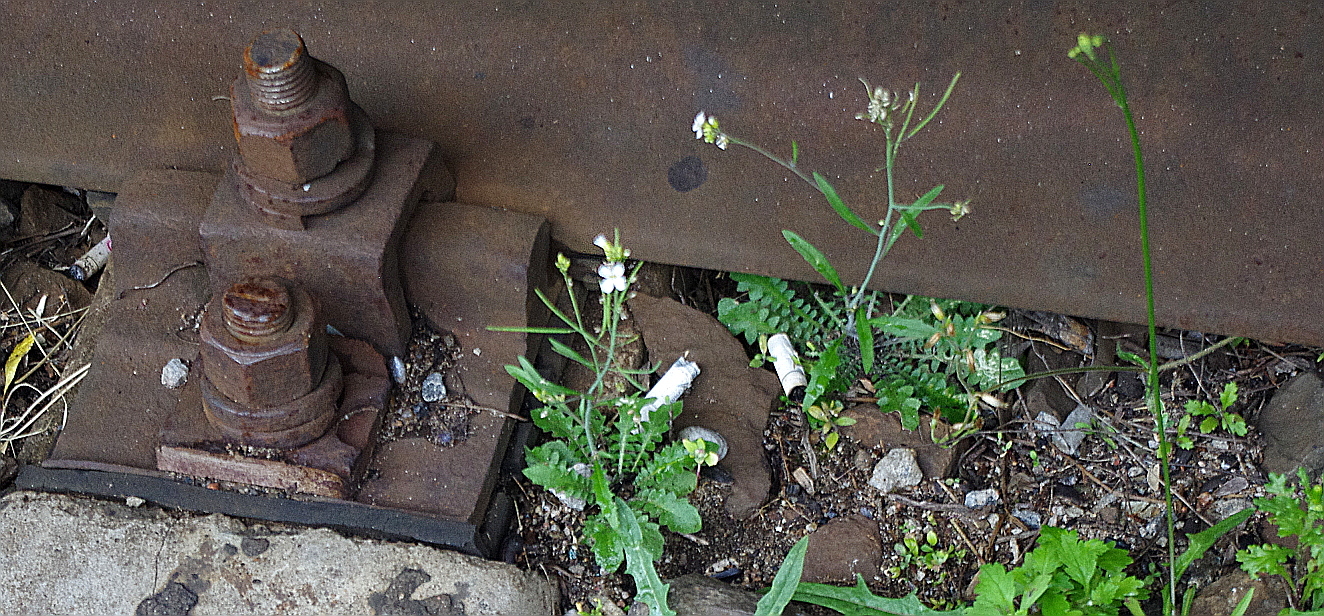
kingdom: Plantae
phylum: Tracheophyta
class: Magnoliopsida
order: Brassicales
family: Brassicaceae
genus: Arabidopsis
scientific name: Arabidopsis arenosa
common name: Sand rock-cress
